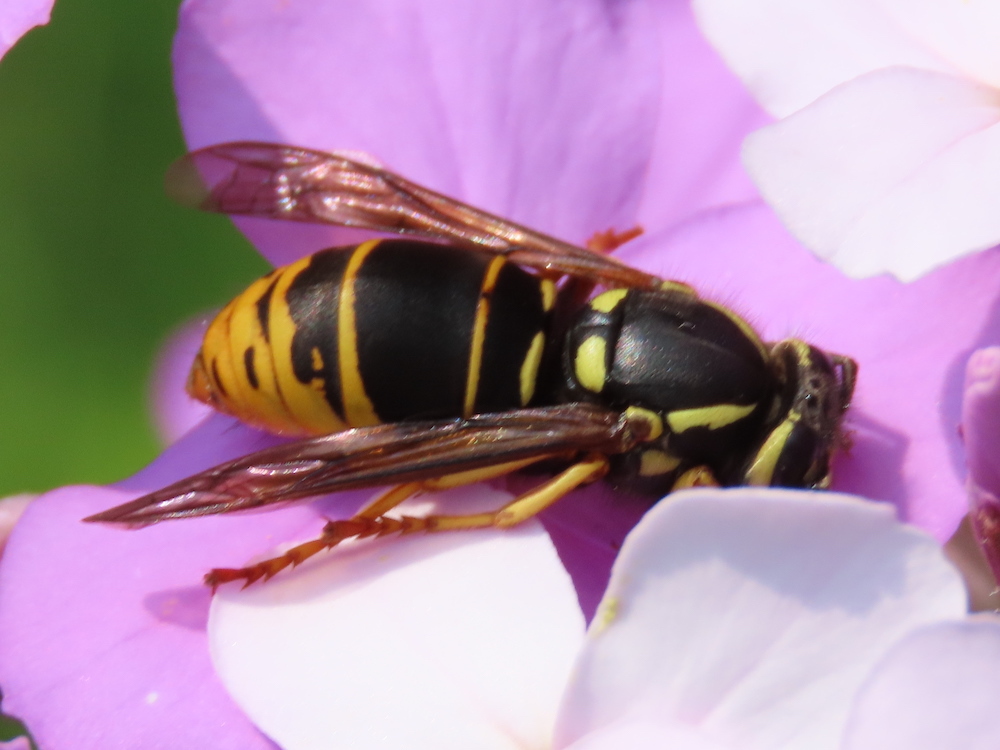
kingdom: Animalia
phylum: Arthropoda
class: Insecta
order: Hymenoptera
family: Vespidae
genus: Vespula
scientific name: Vespula vidua
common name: Widow yellowjacket
